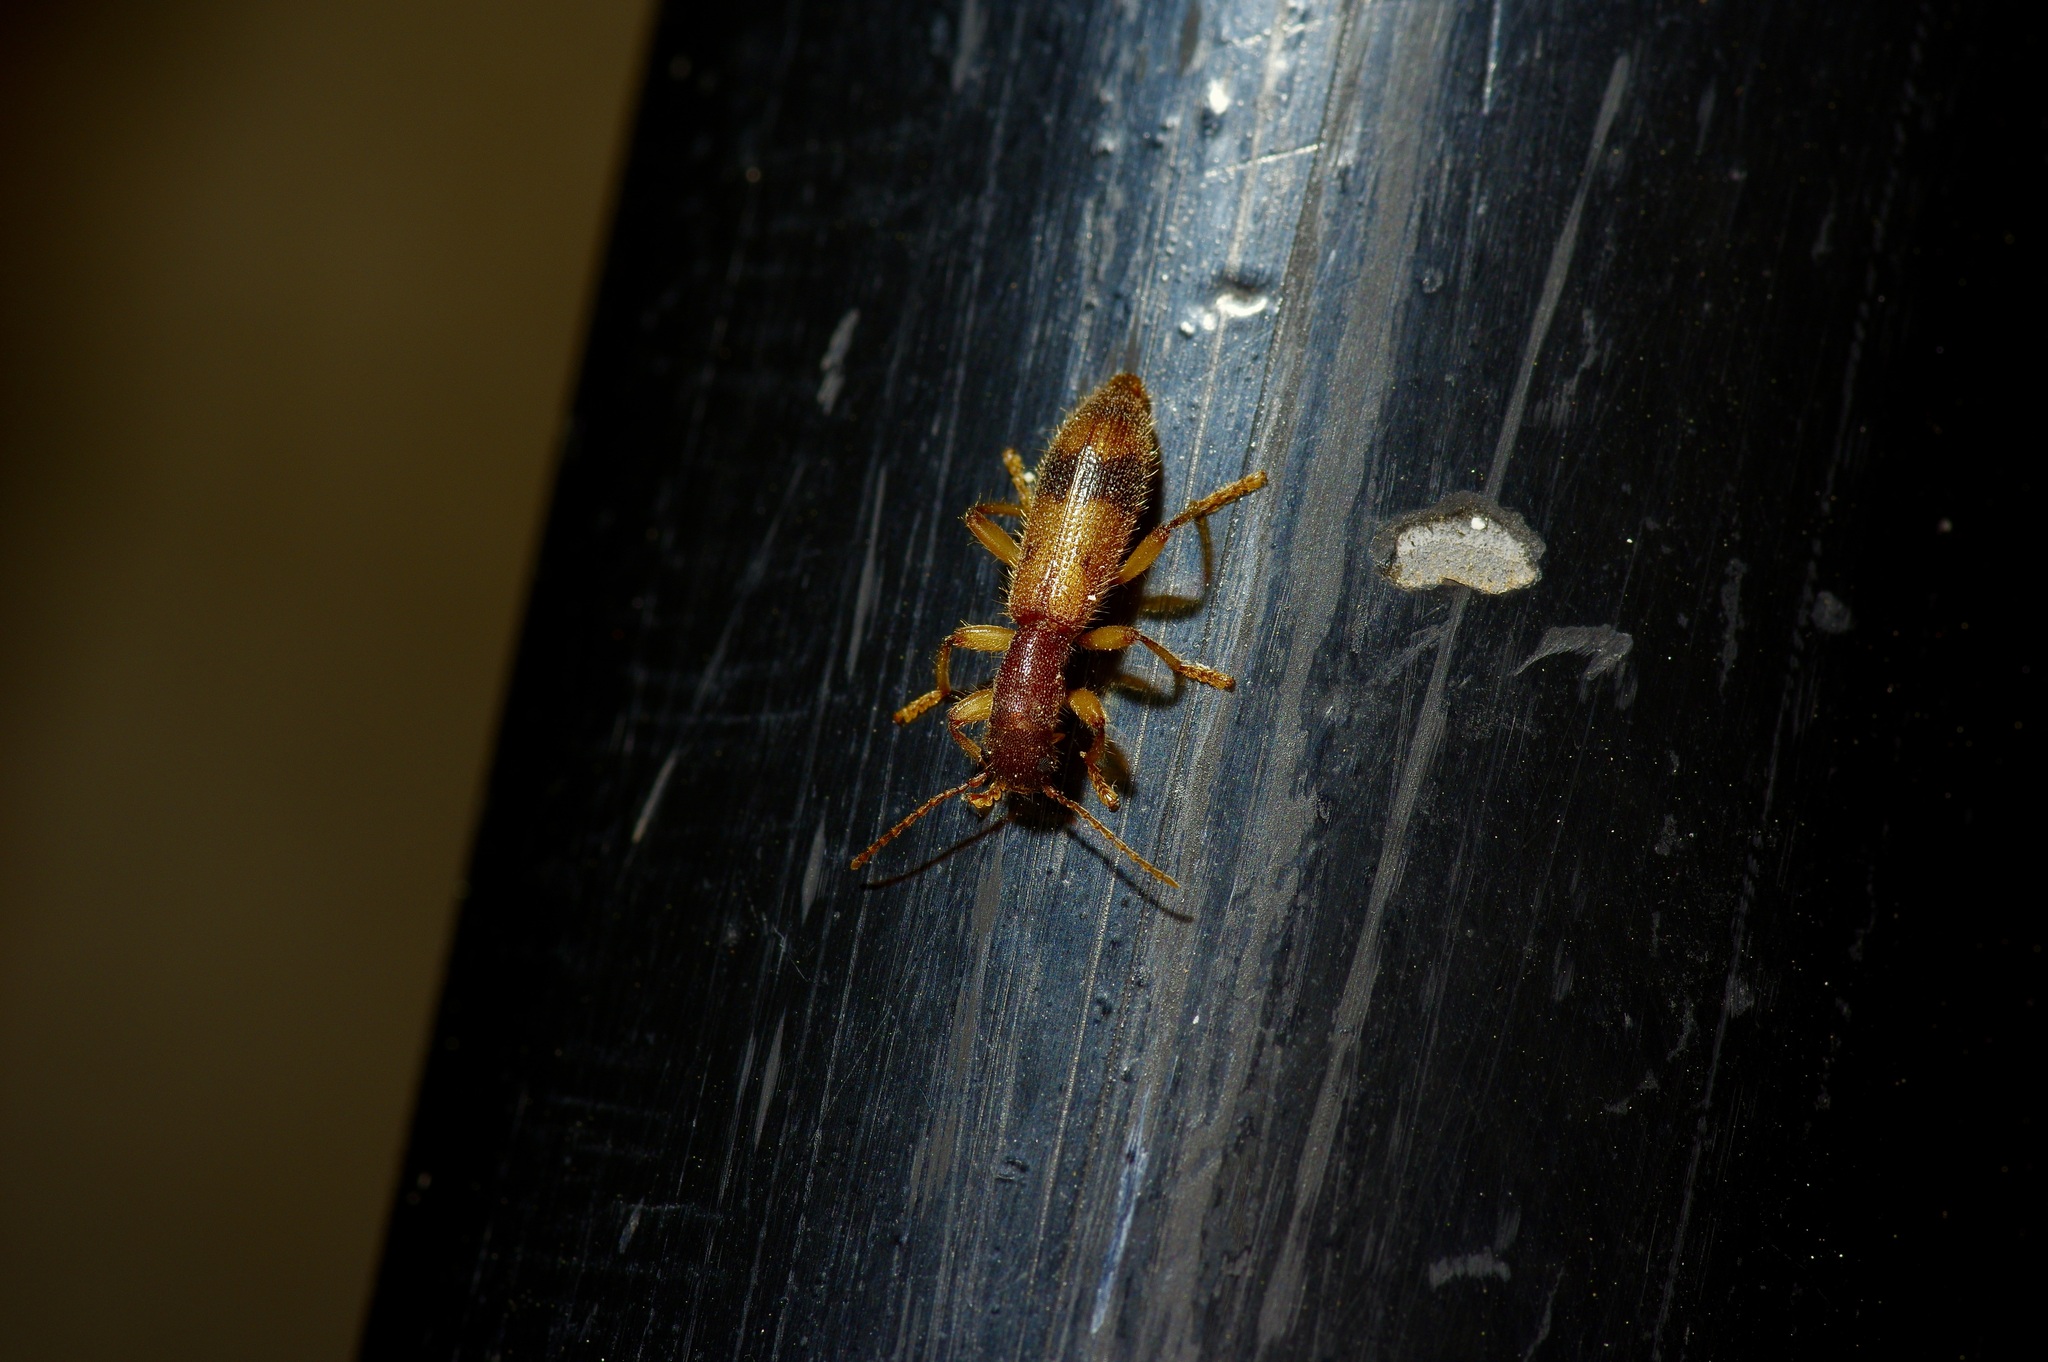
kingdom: Animalia
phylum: Arthropoda
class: Insecta
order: Coleoptera
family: Cleridae
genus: Cymatodera
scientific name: Cymatodera balteata
